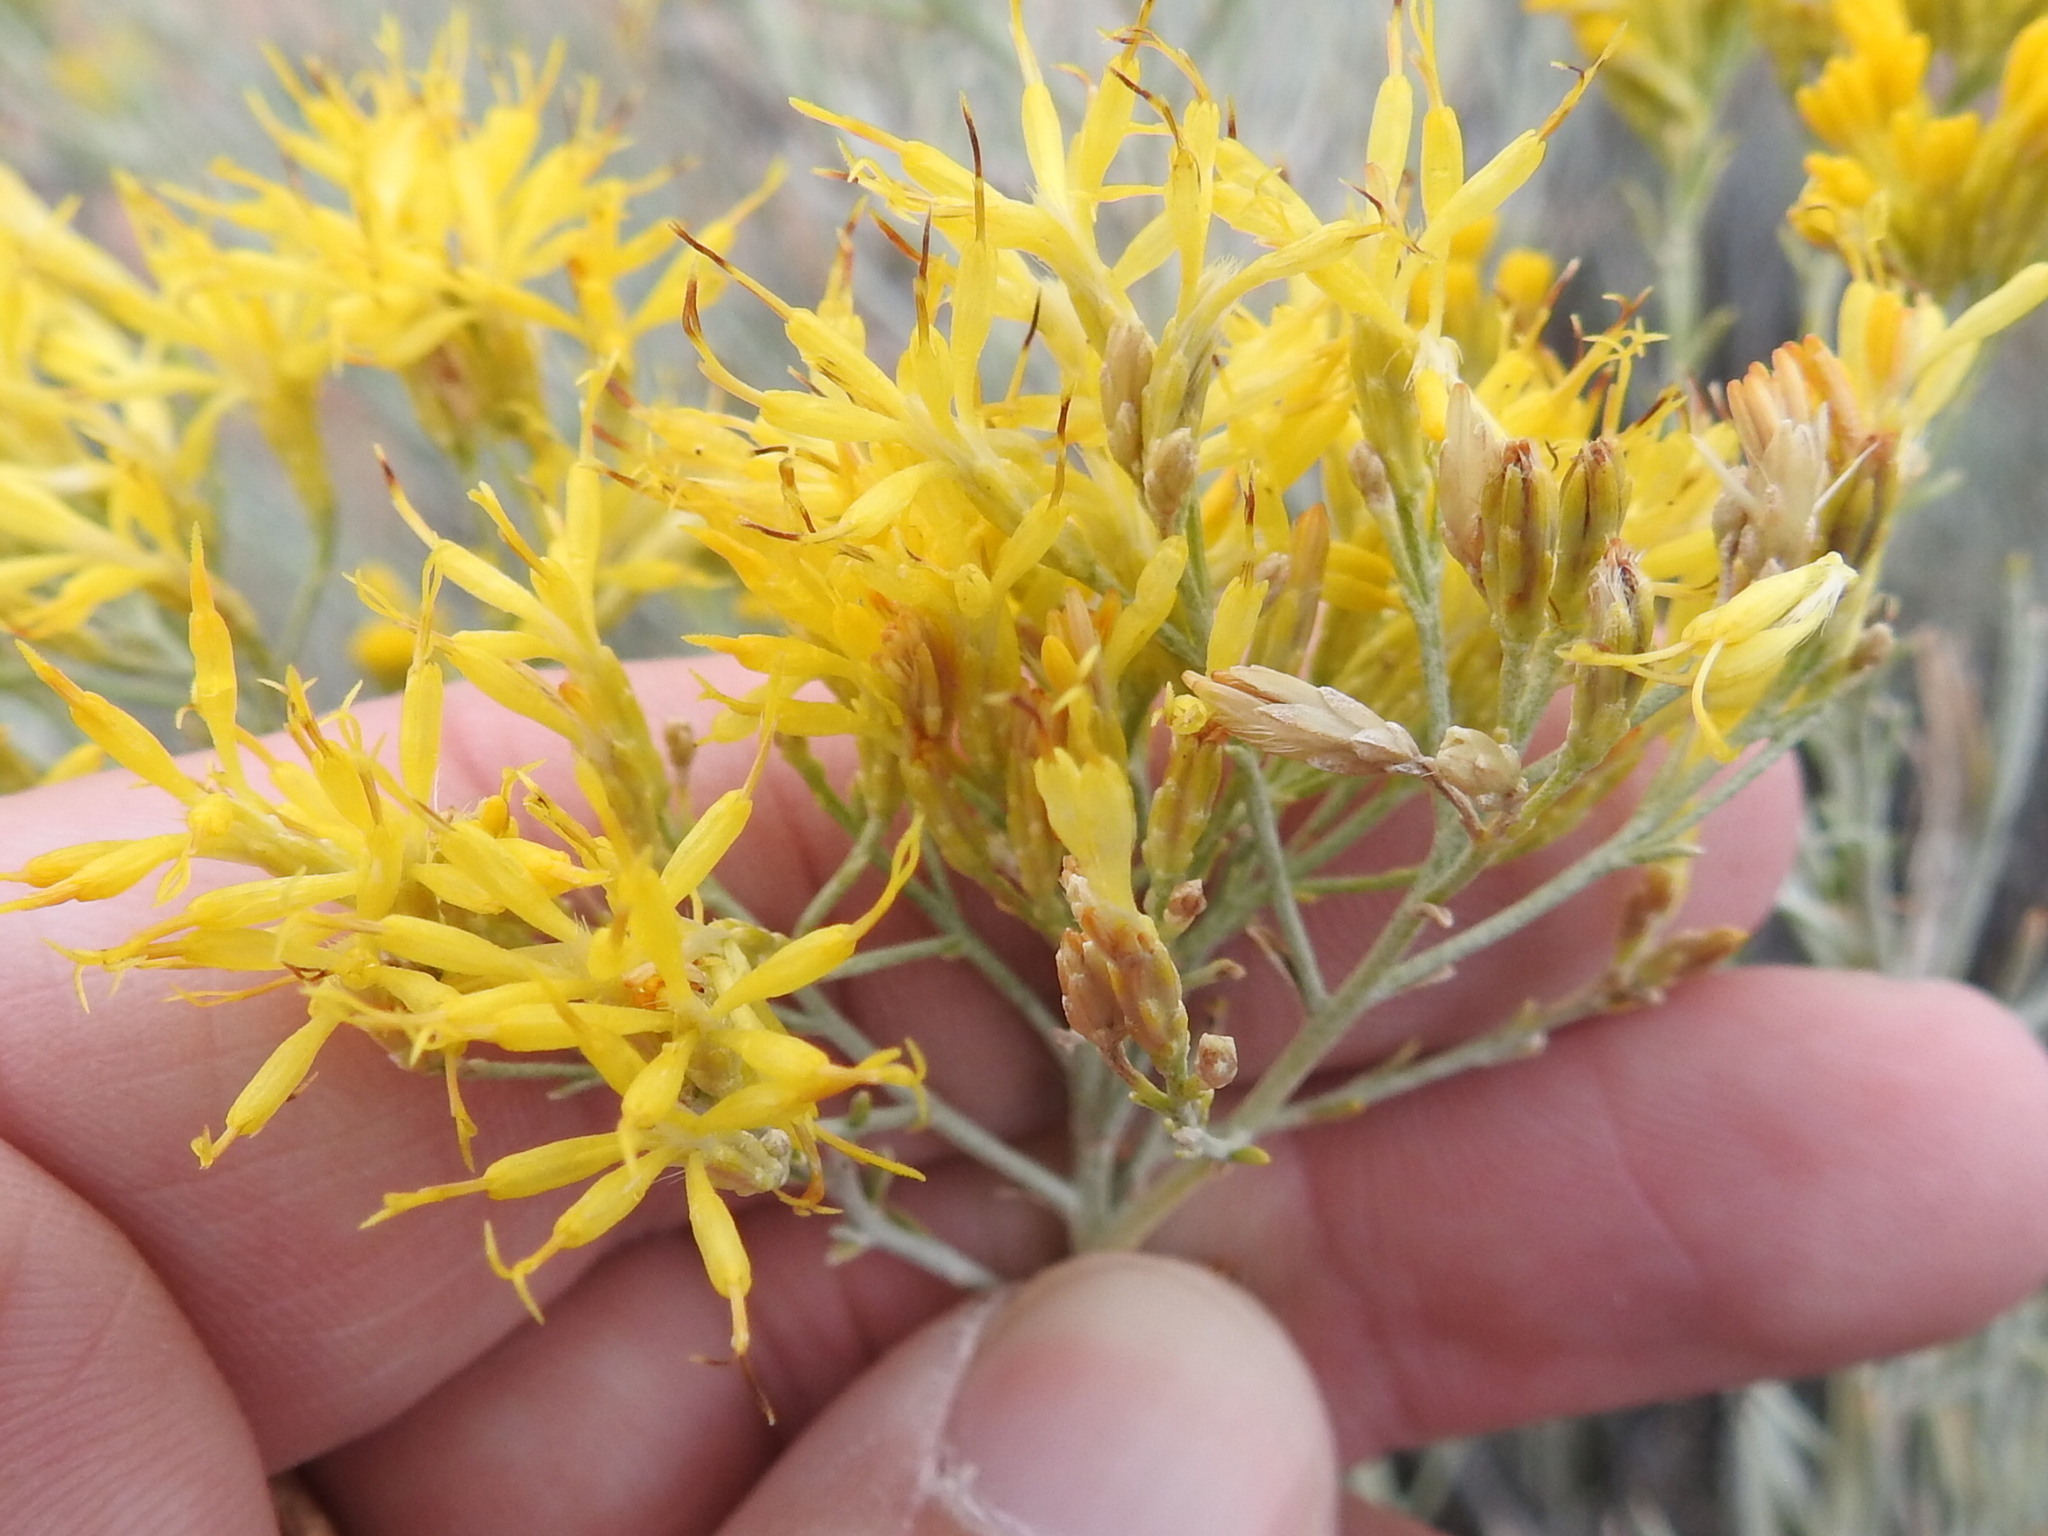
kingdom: Plantae
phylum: Tracheophyta
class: Magnoliopsida
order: Asterales
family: Asteraceae
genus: Ericameria
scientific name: Ericameria nauseosa
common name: Rubber rabbitbrush
